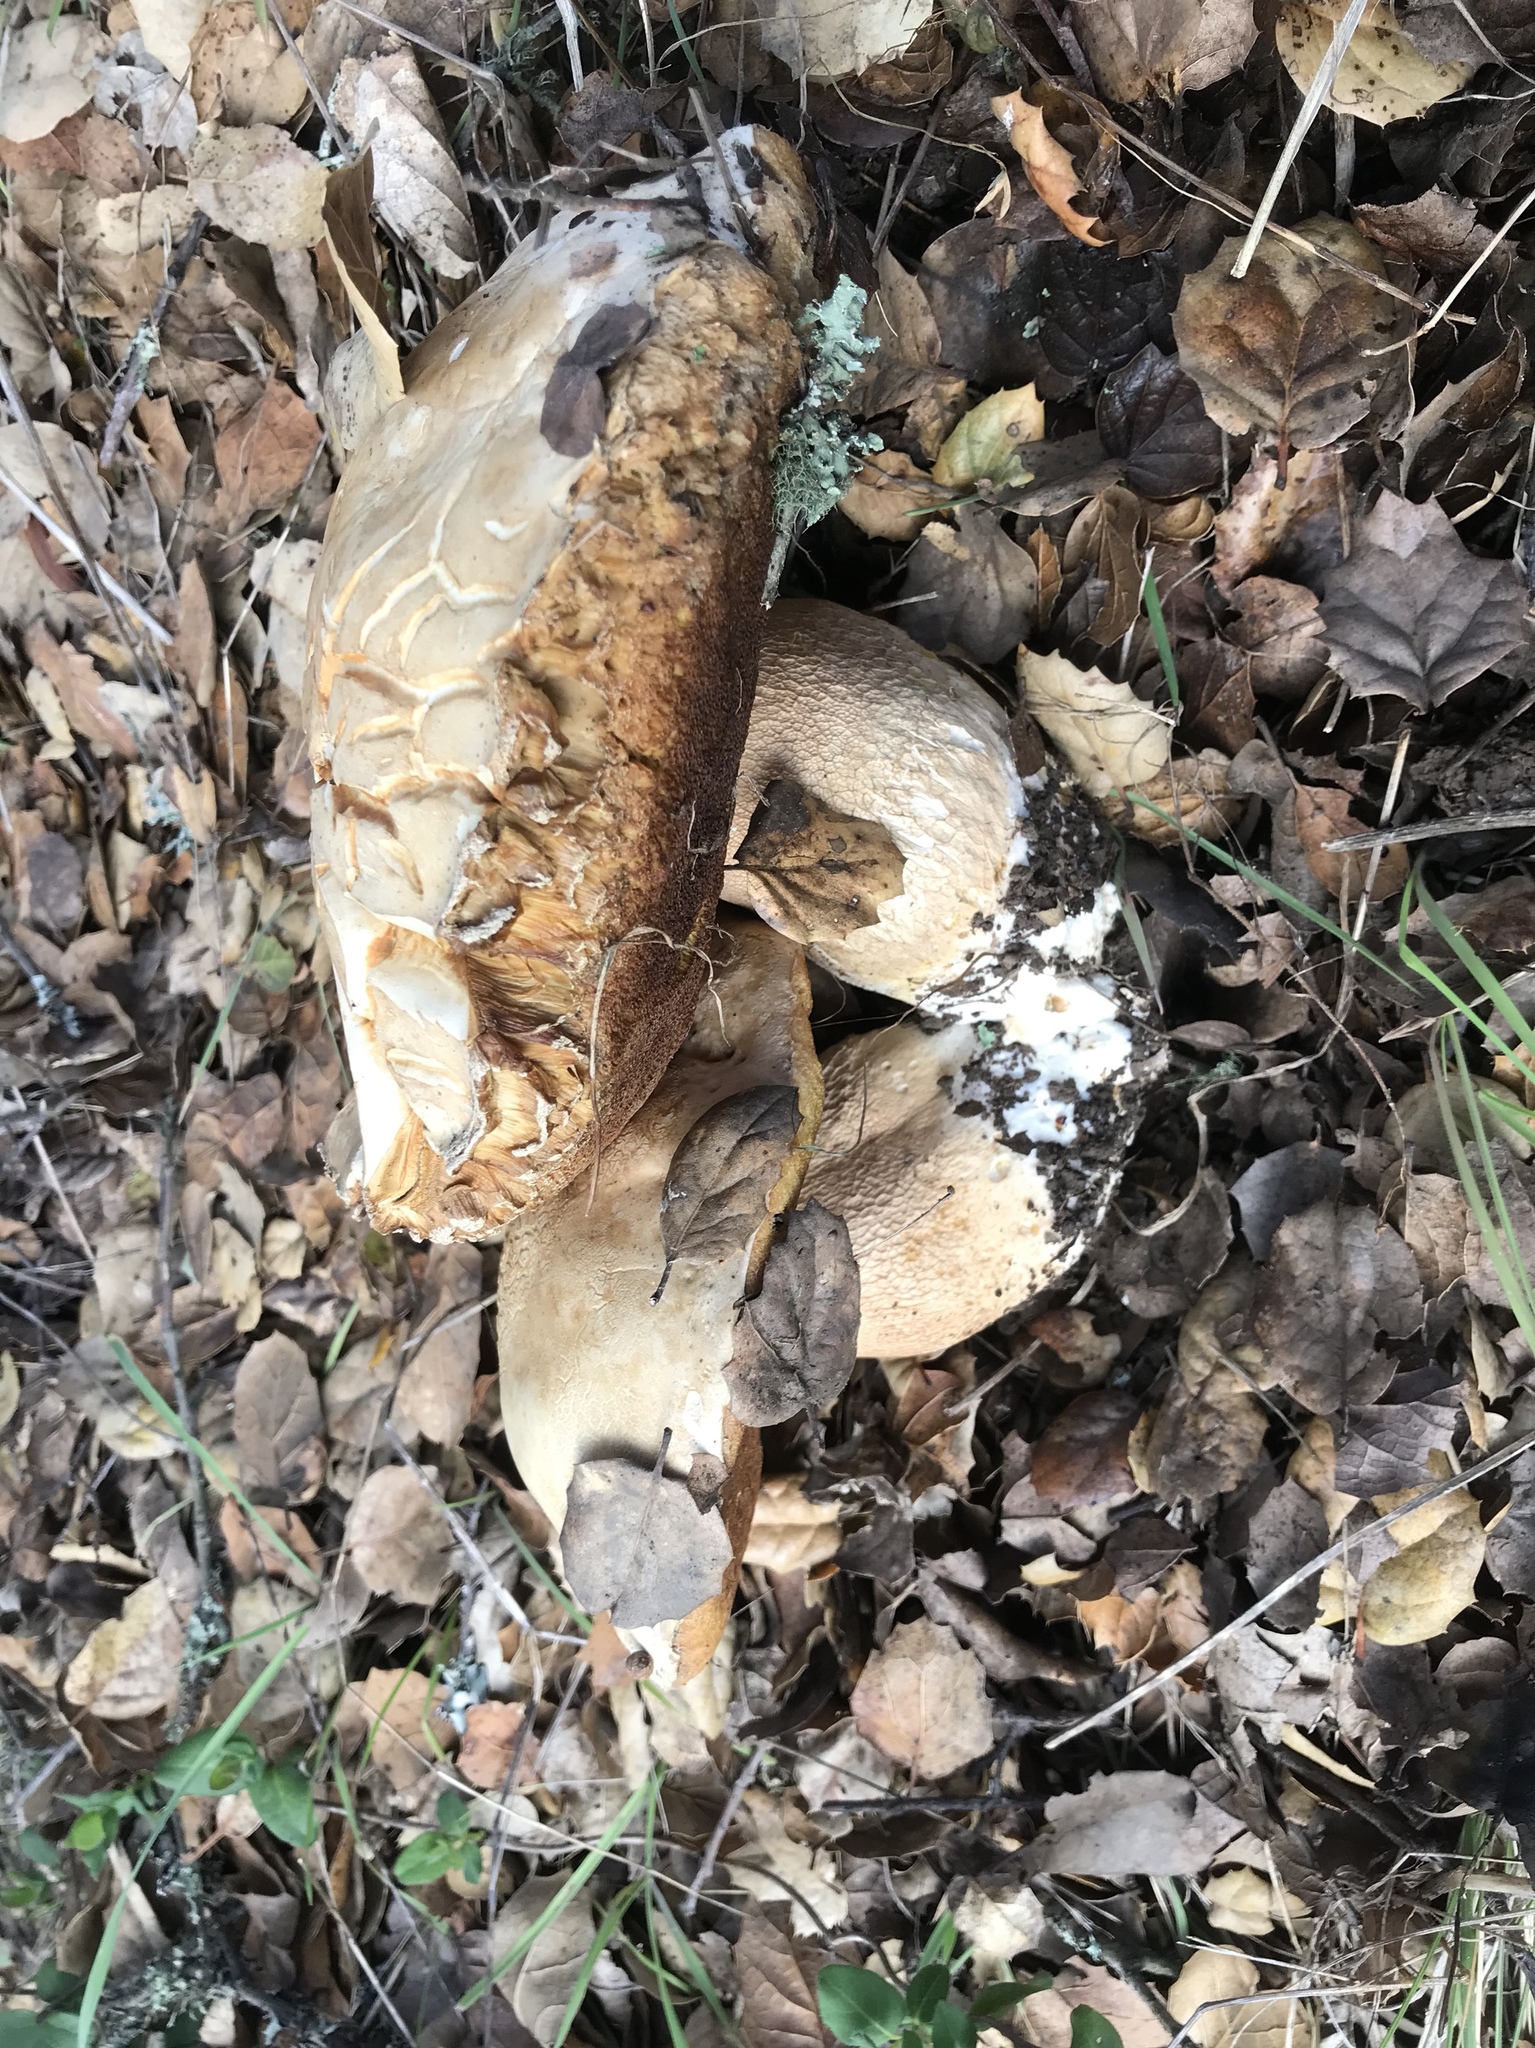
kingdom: Fungi
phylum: Basidiomycota
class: Agaricomycetes
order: Boletales
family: Boletaceae
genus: Boletus
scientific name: Boletus barrowsii
